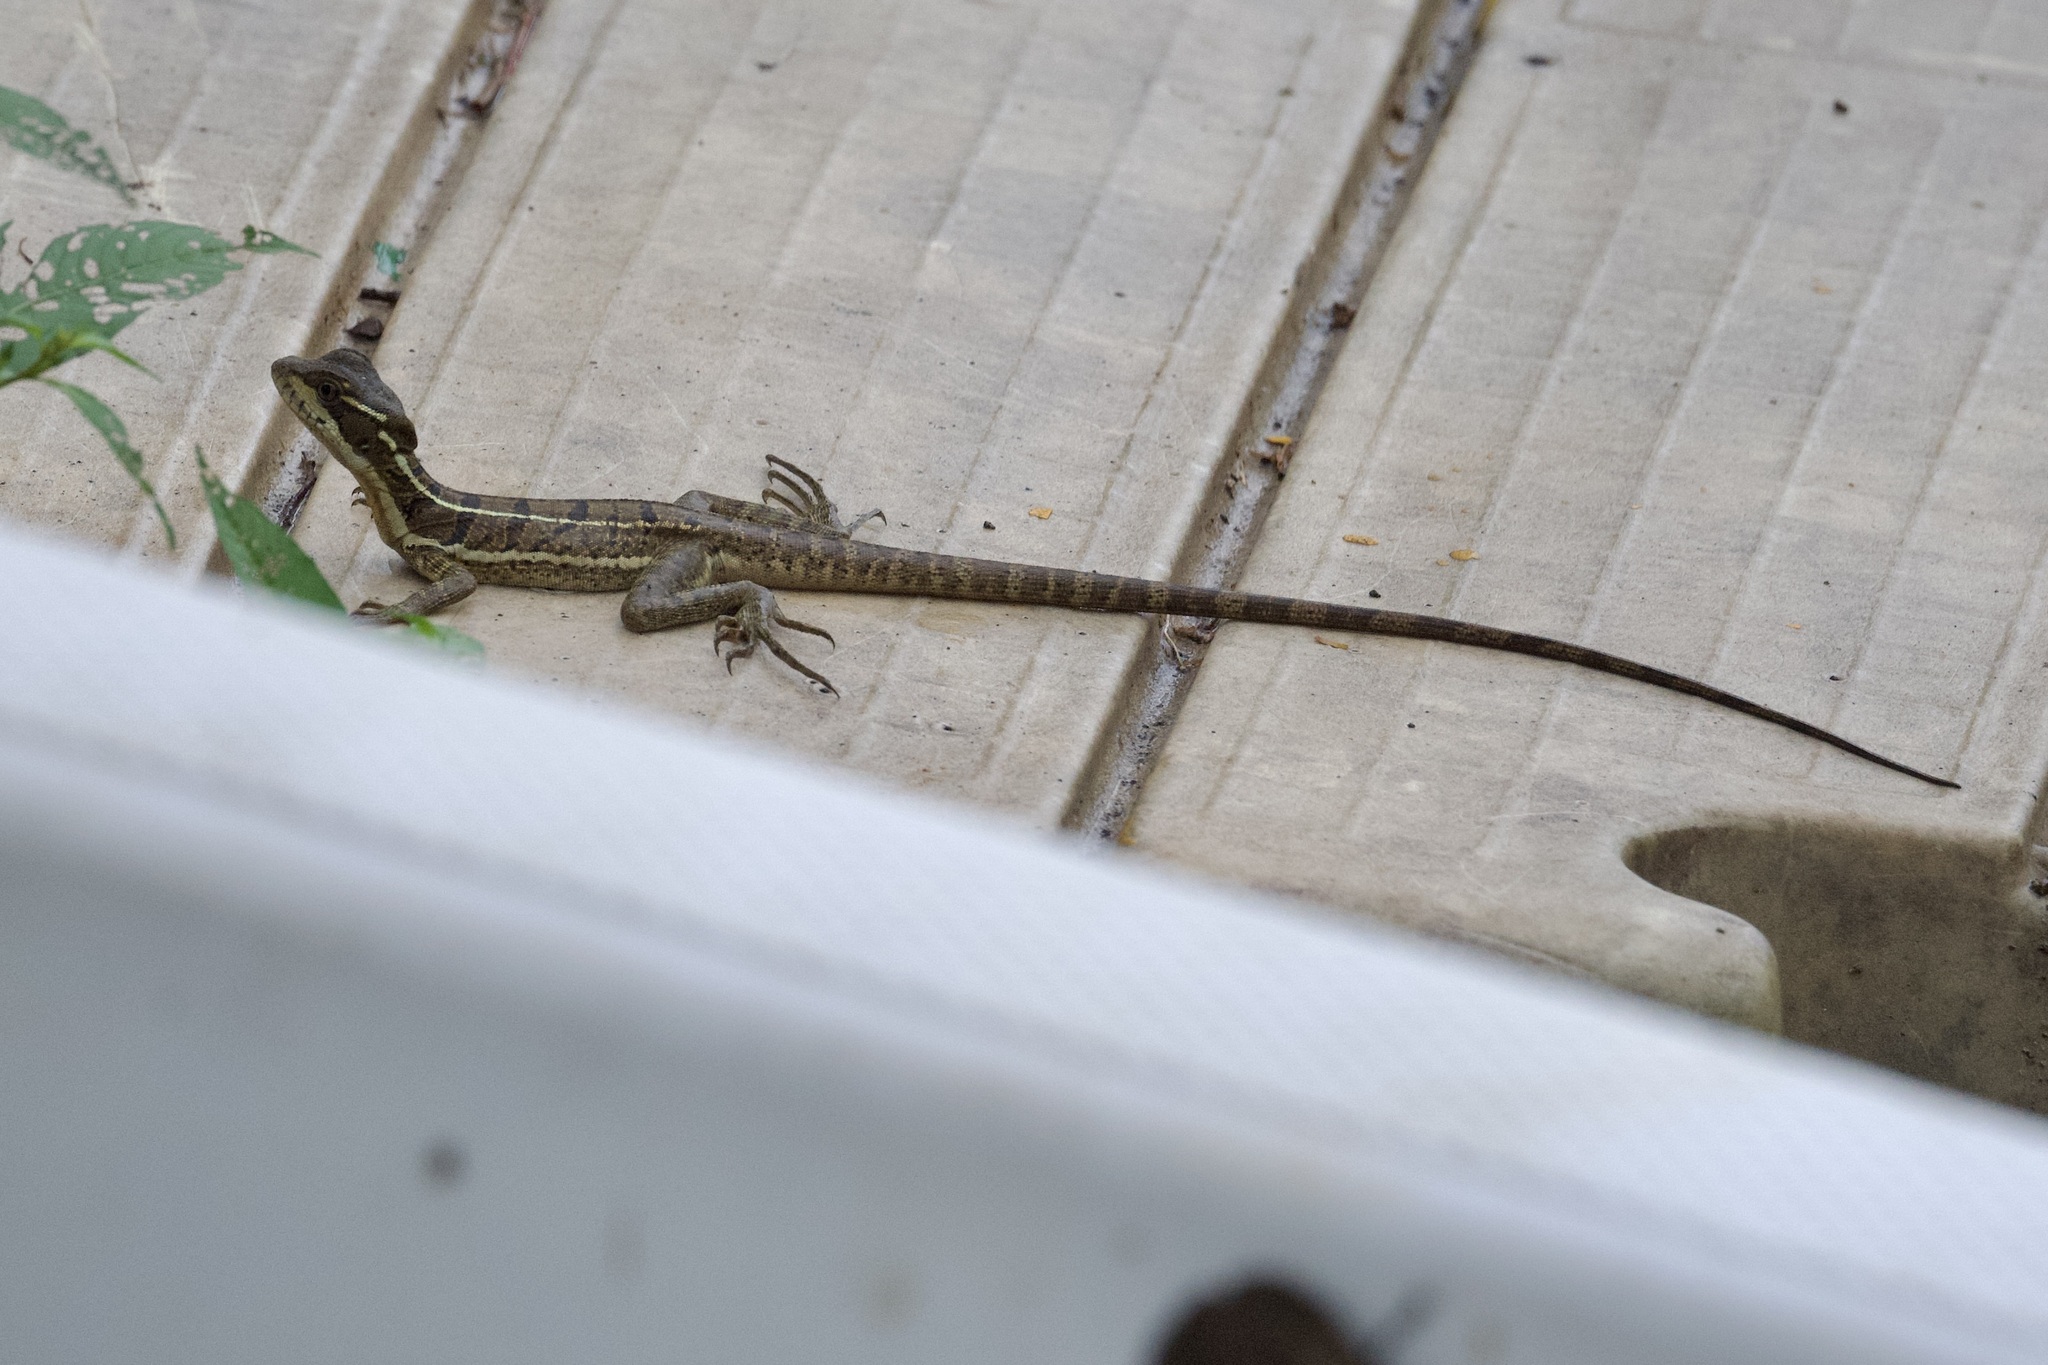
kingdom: Animalia
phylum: Chordata
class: Squamata
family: Corytophanidae
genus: Basiliscus
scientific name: Basiliscus basiliscus
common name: Common basilisk
